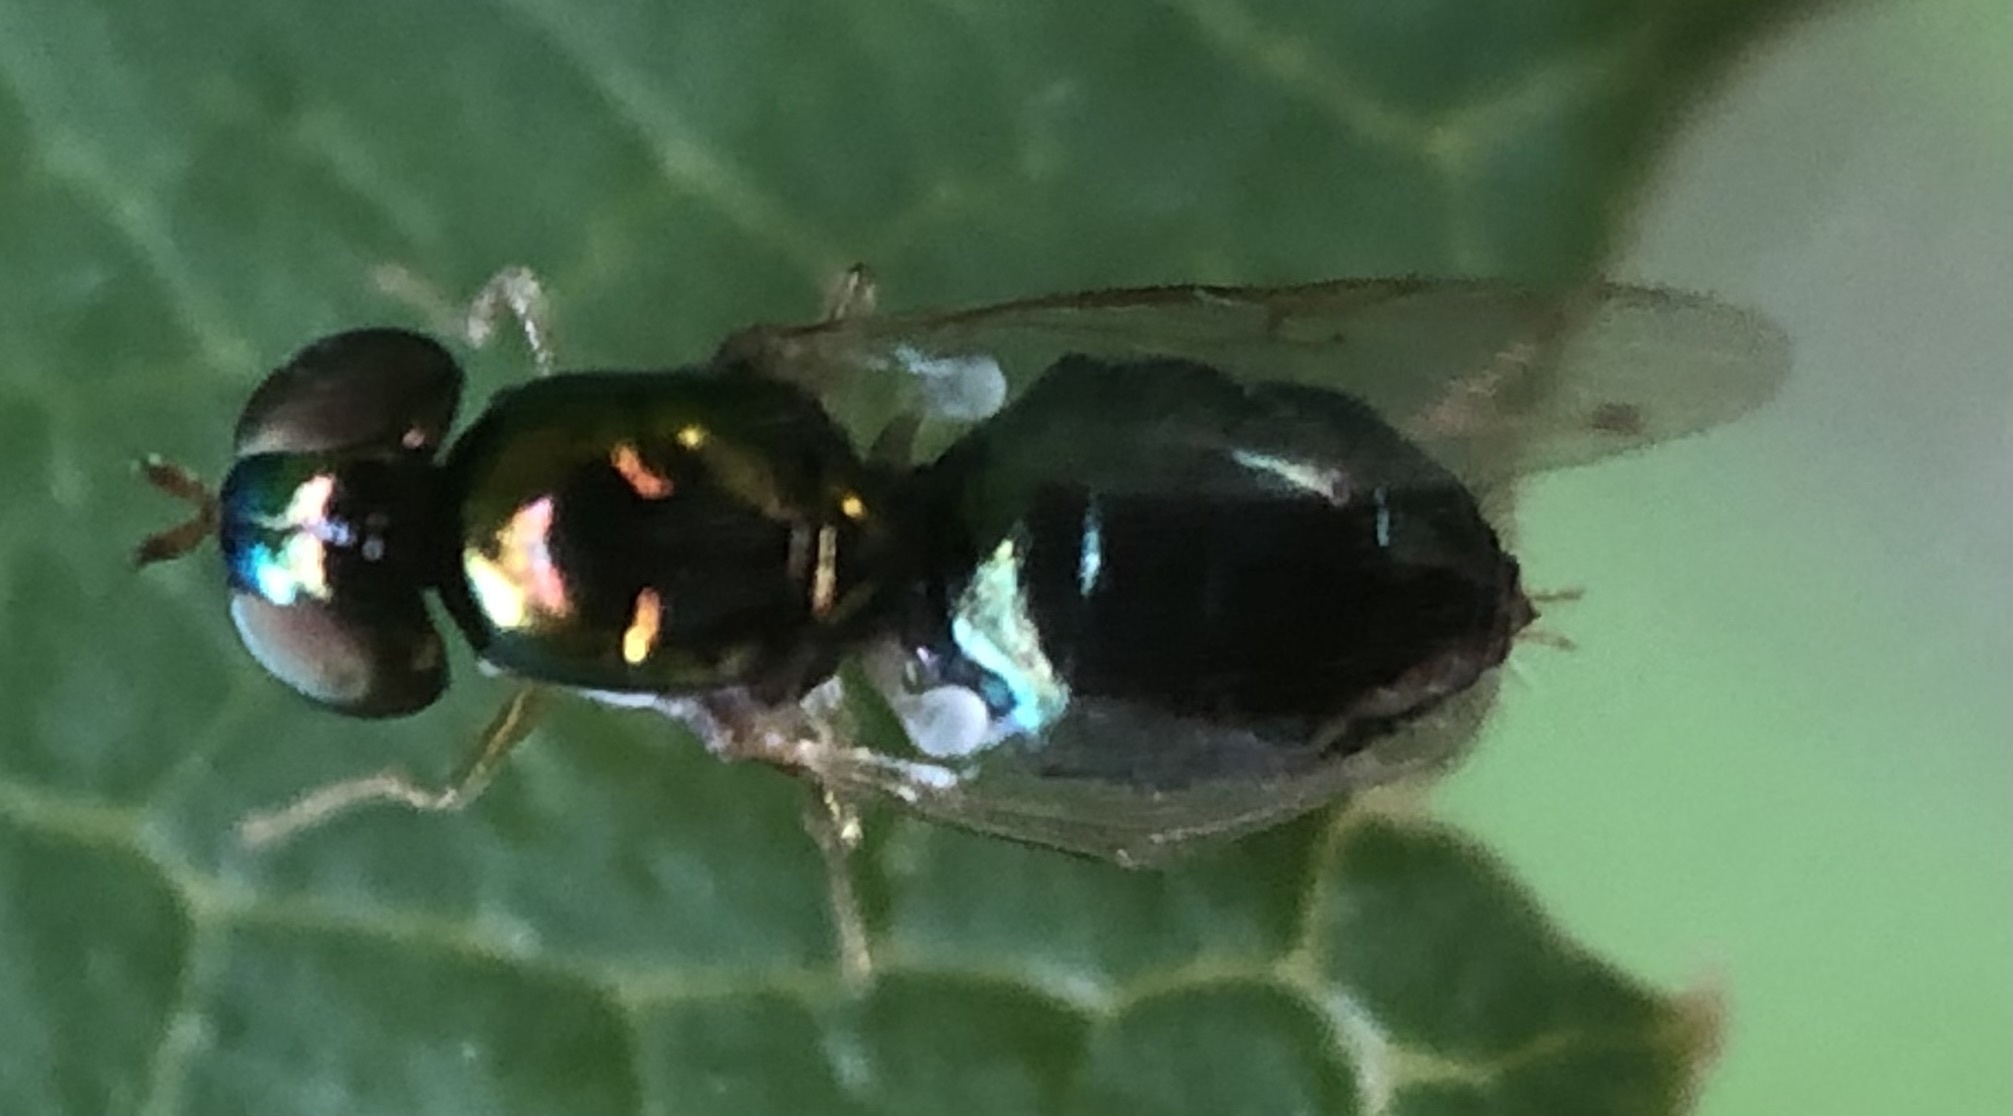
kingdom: Animalia
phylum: Arthropoda
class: Insecta
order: Diptera
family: Stratiomyidae
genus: Microchrysa
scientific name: Microchrysa flaviventris
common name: Soldier fly
